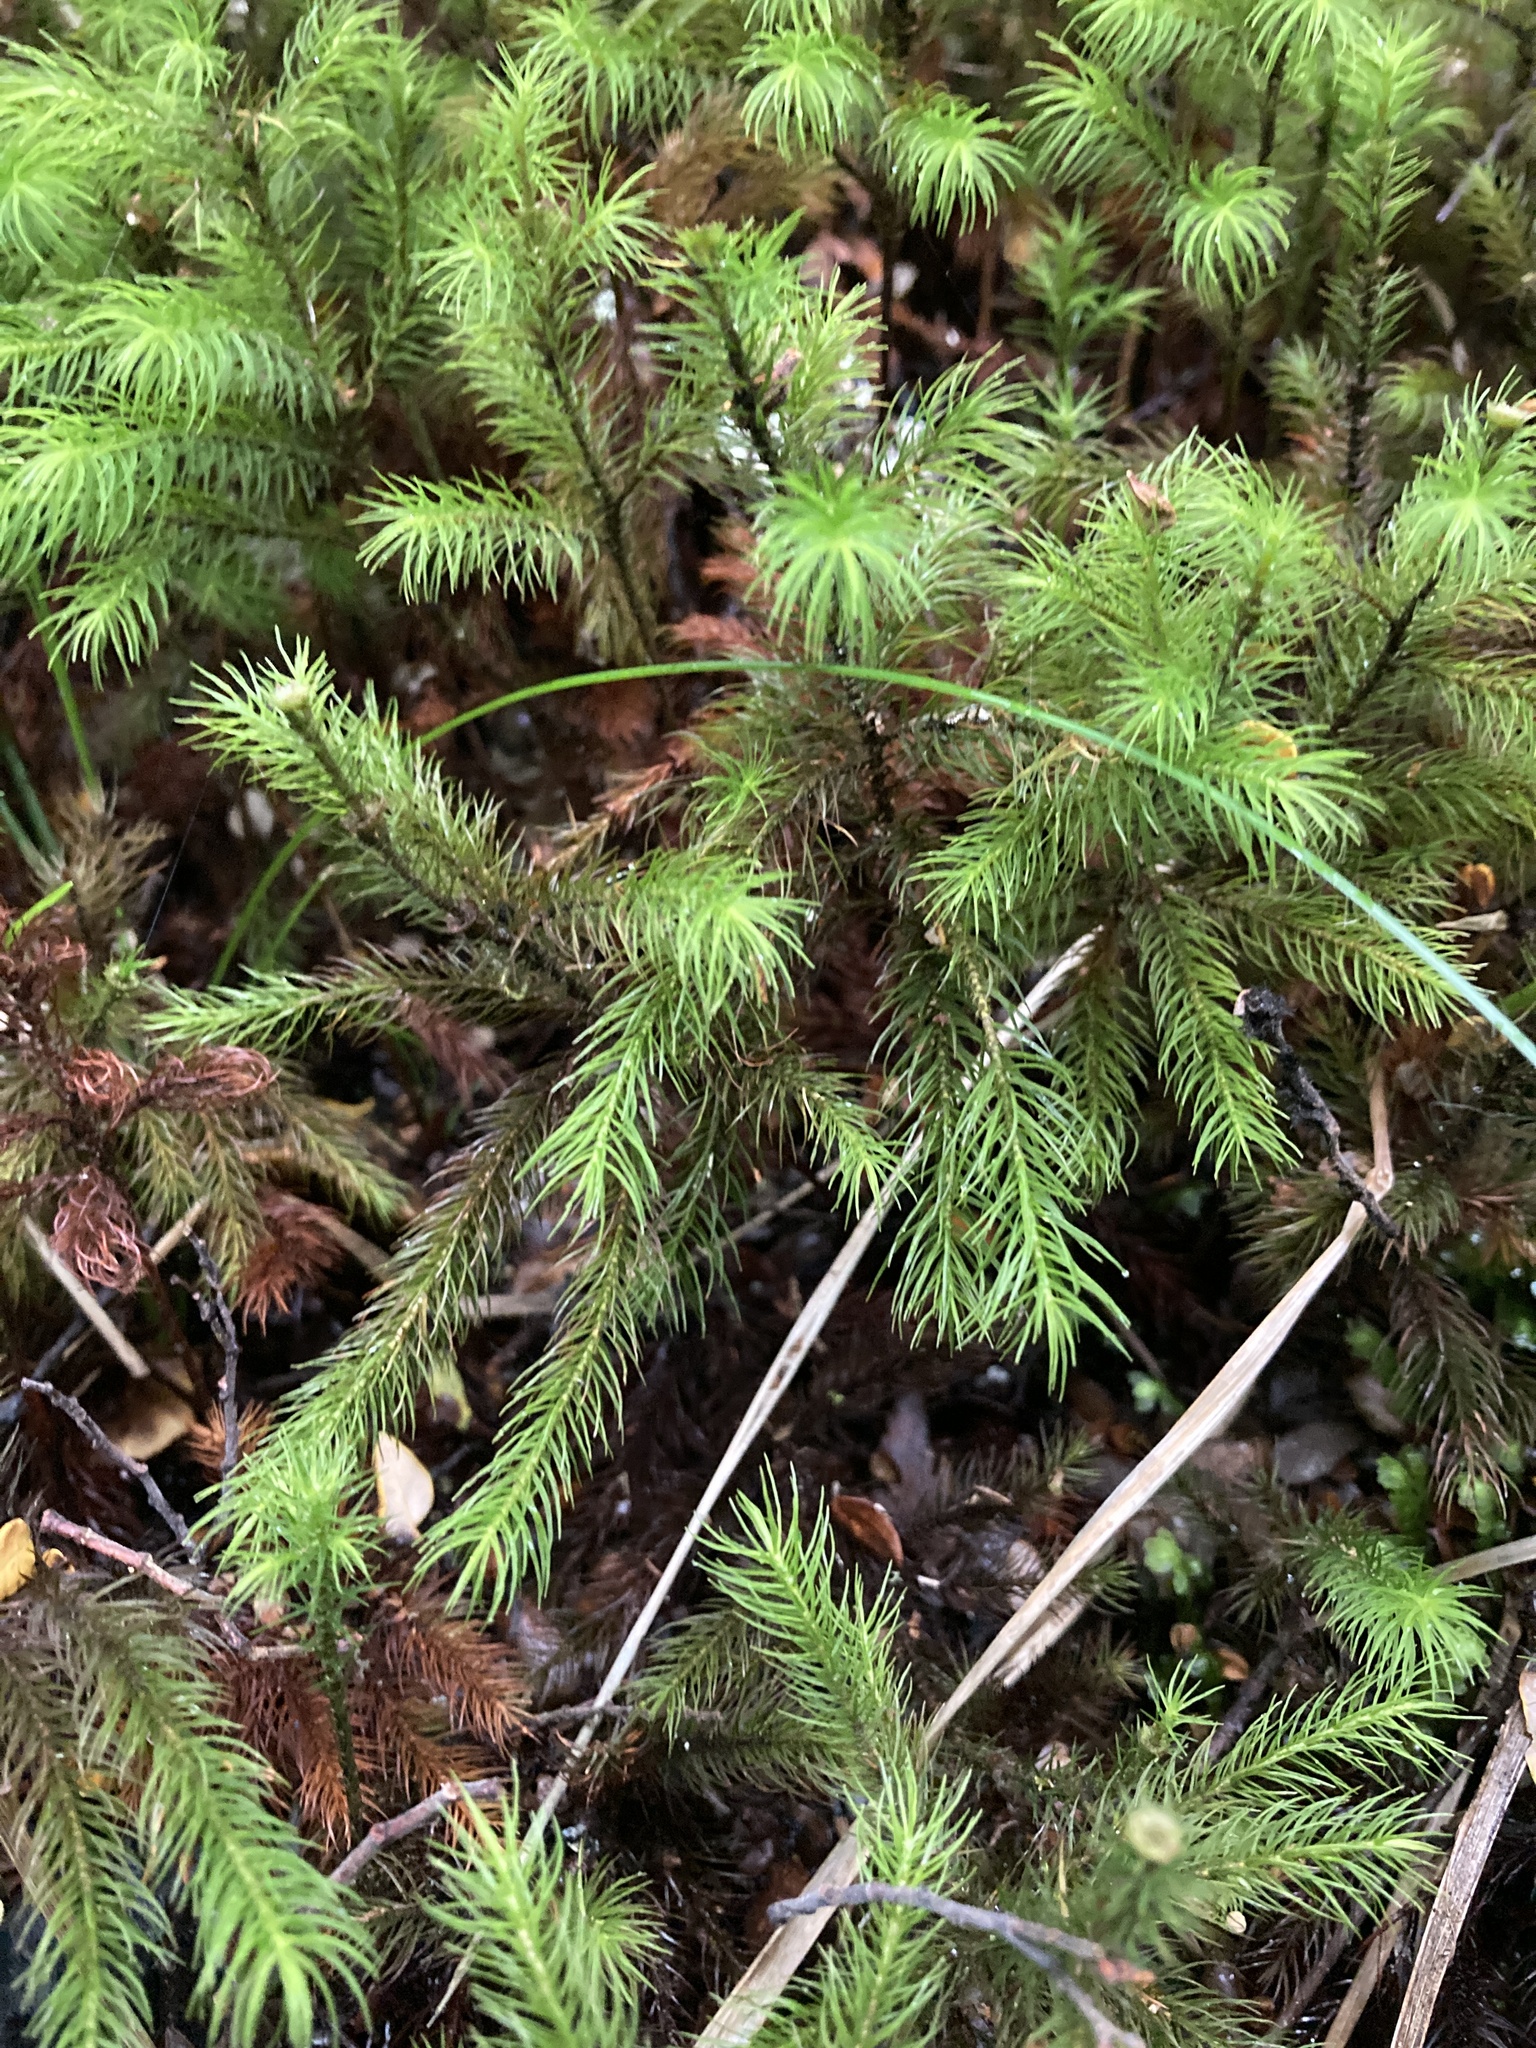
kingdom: Plantae
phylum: Bryophyta
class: Polytrichopsida
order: Polytrichales
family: Polytrichaceae
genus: Dendroligotrichum
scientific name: Dendroligotrichum tongariroense
